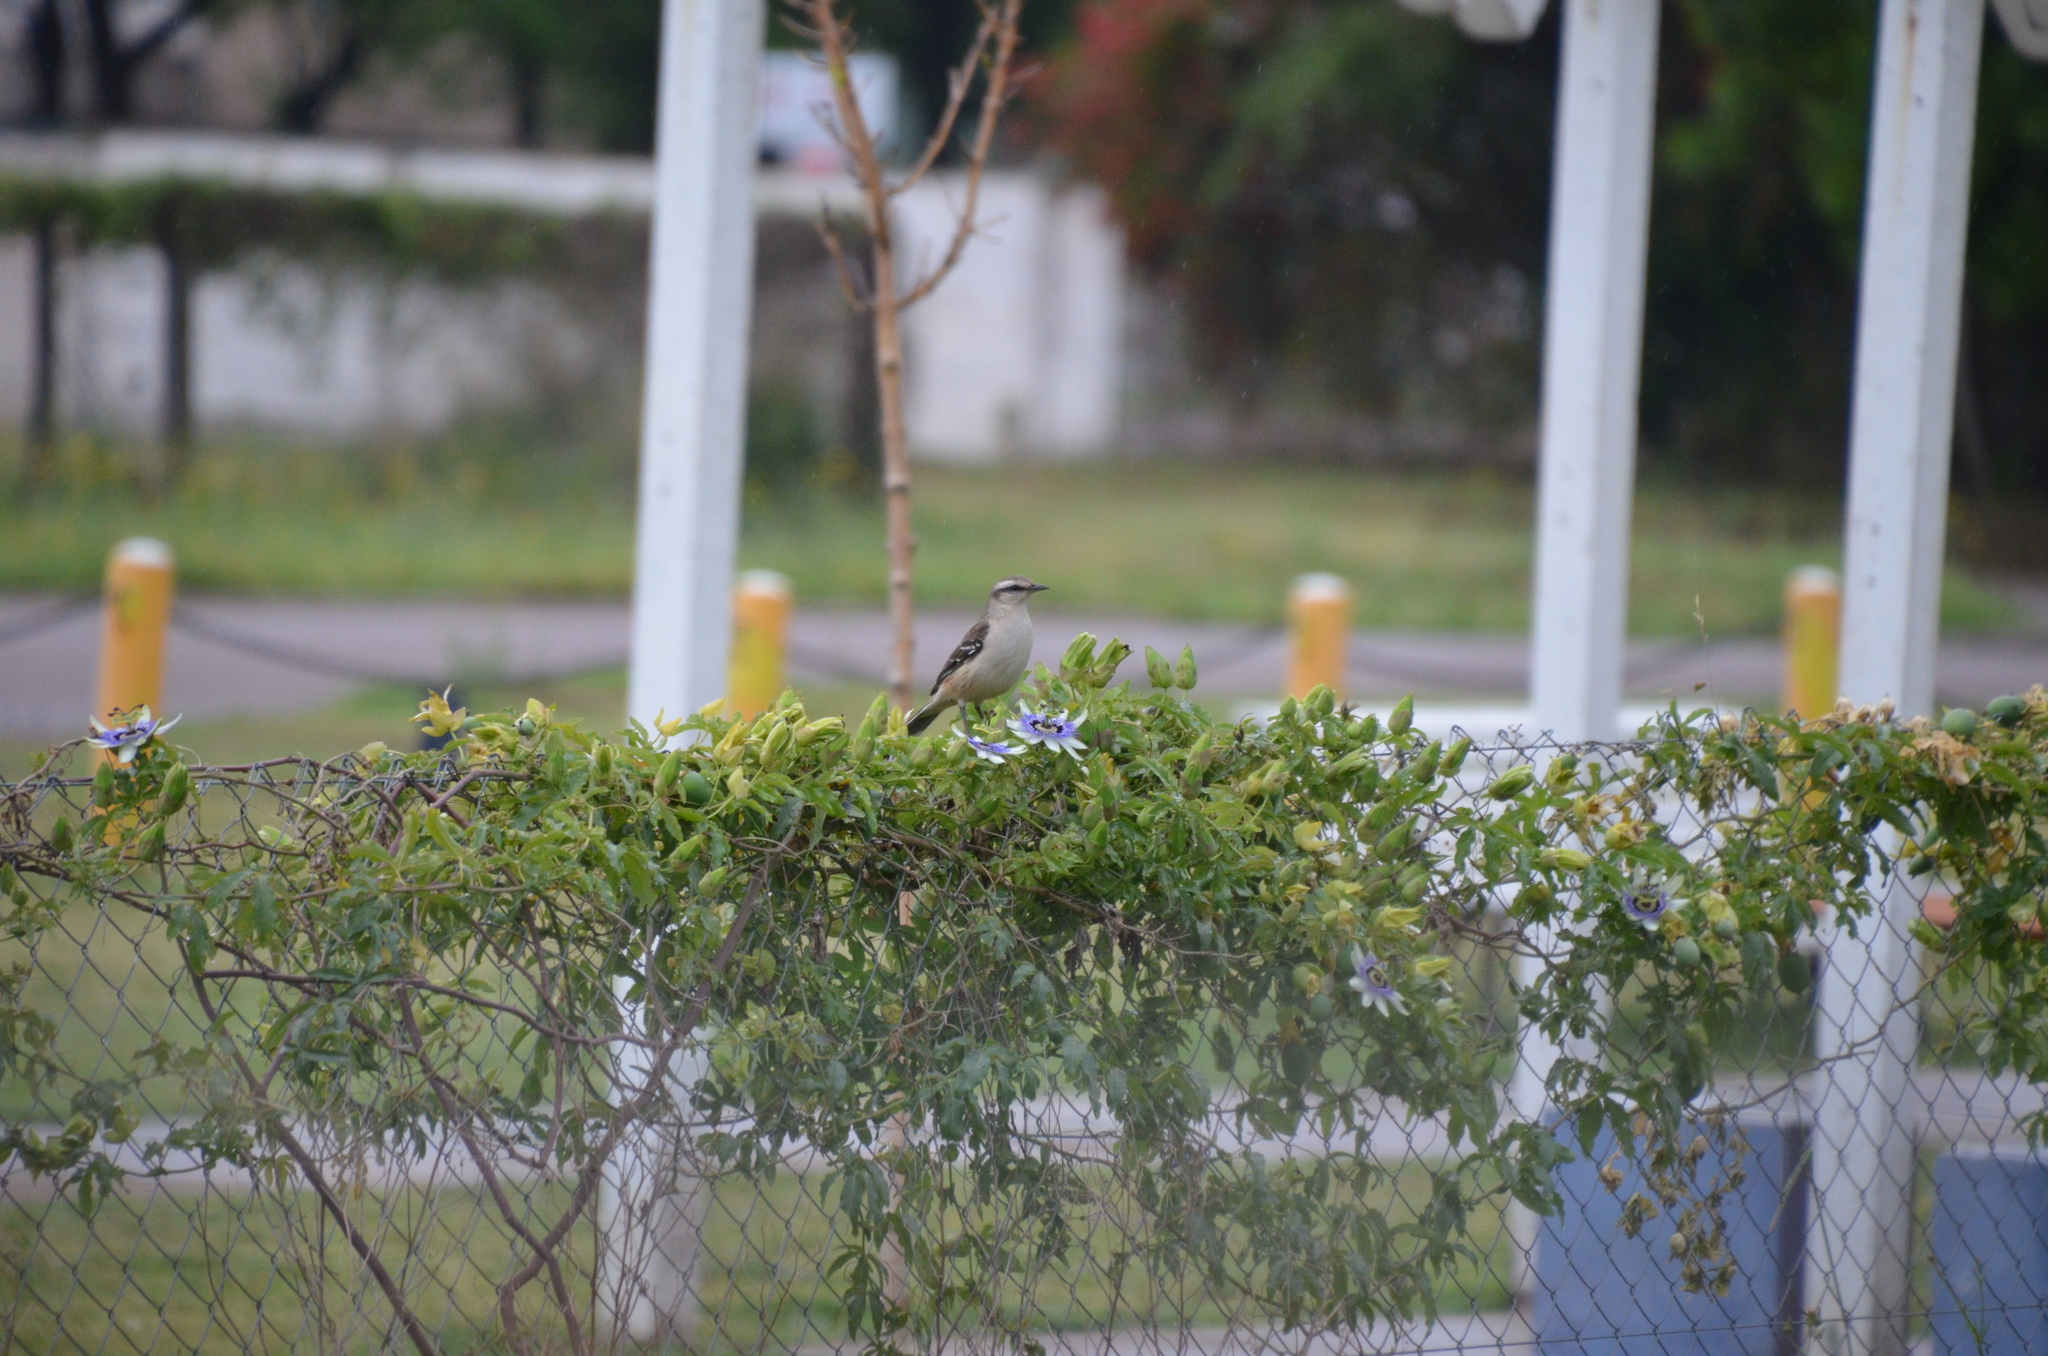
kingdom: Animalia
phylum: Chordata
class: Aves
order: Passeriformes
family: Mimidae
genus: Mimus
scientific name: Mimus saturninus
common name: Chalk-browed mockingbird
